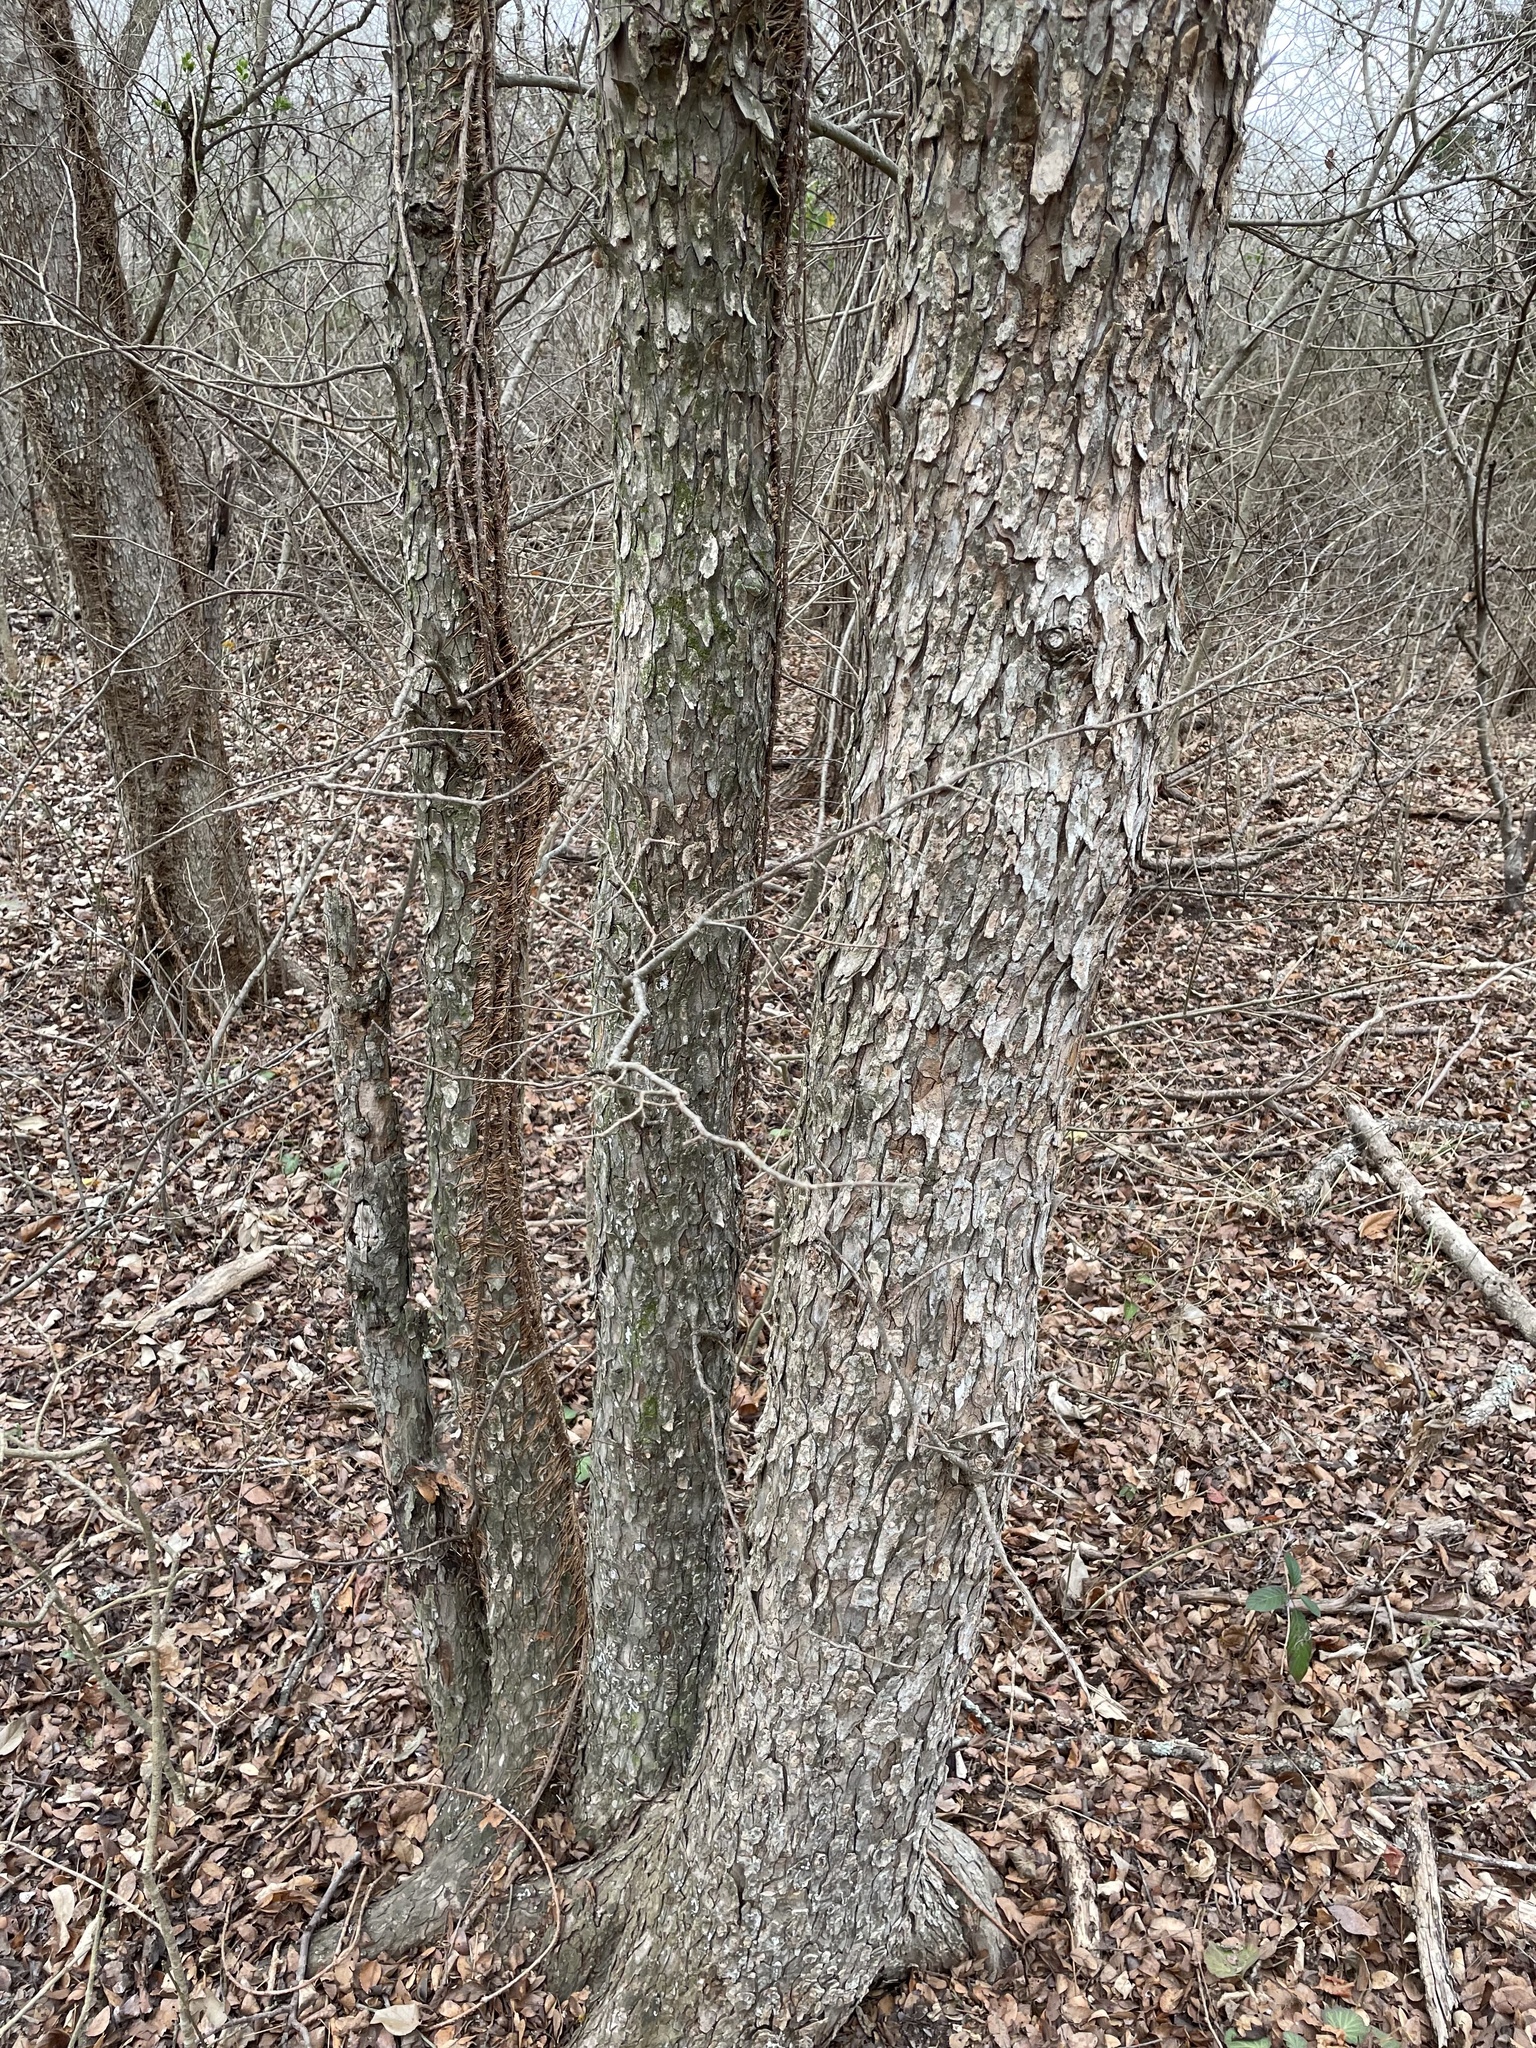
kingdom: Plantae
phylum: Tracheophyta
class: Magnoliopsida
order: Rosales
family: Ulmaceae
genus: Ulmus
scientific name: Ulmus crassifolia
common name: Basket elm
